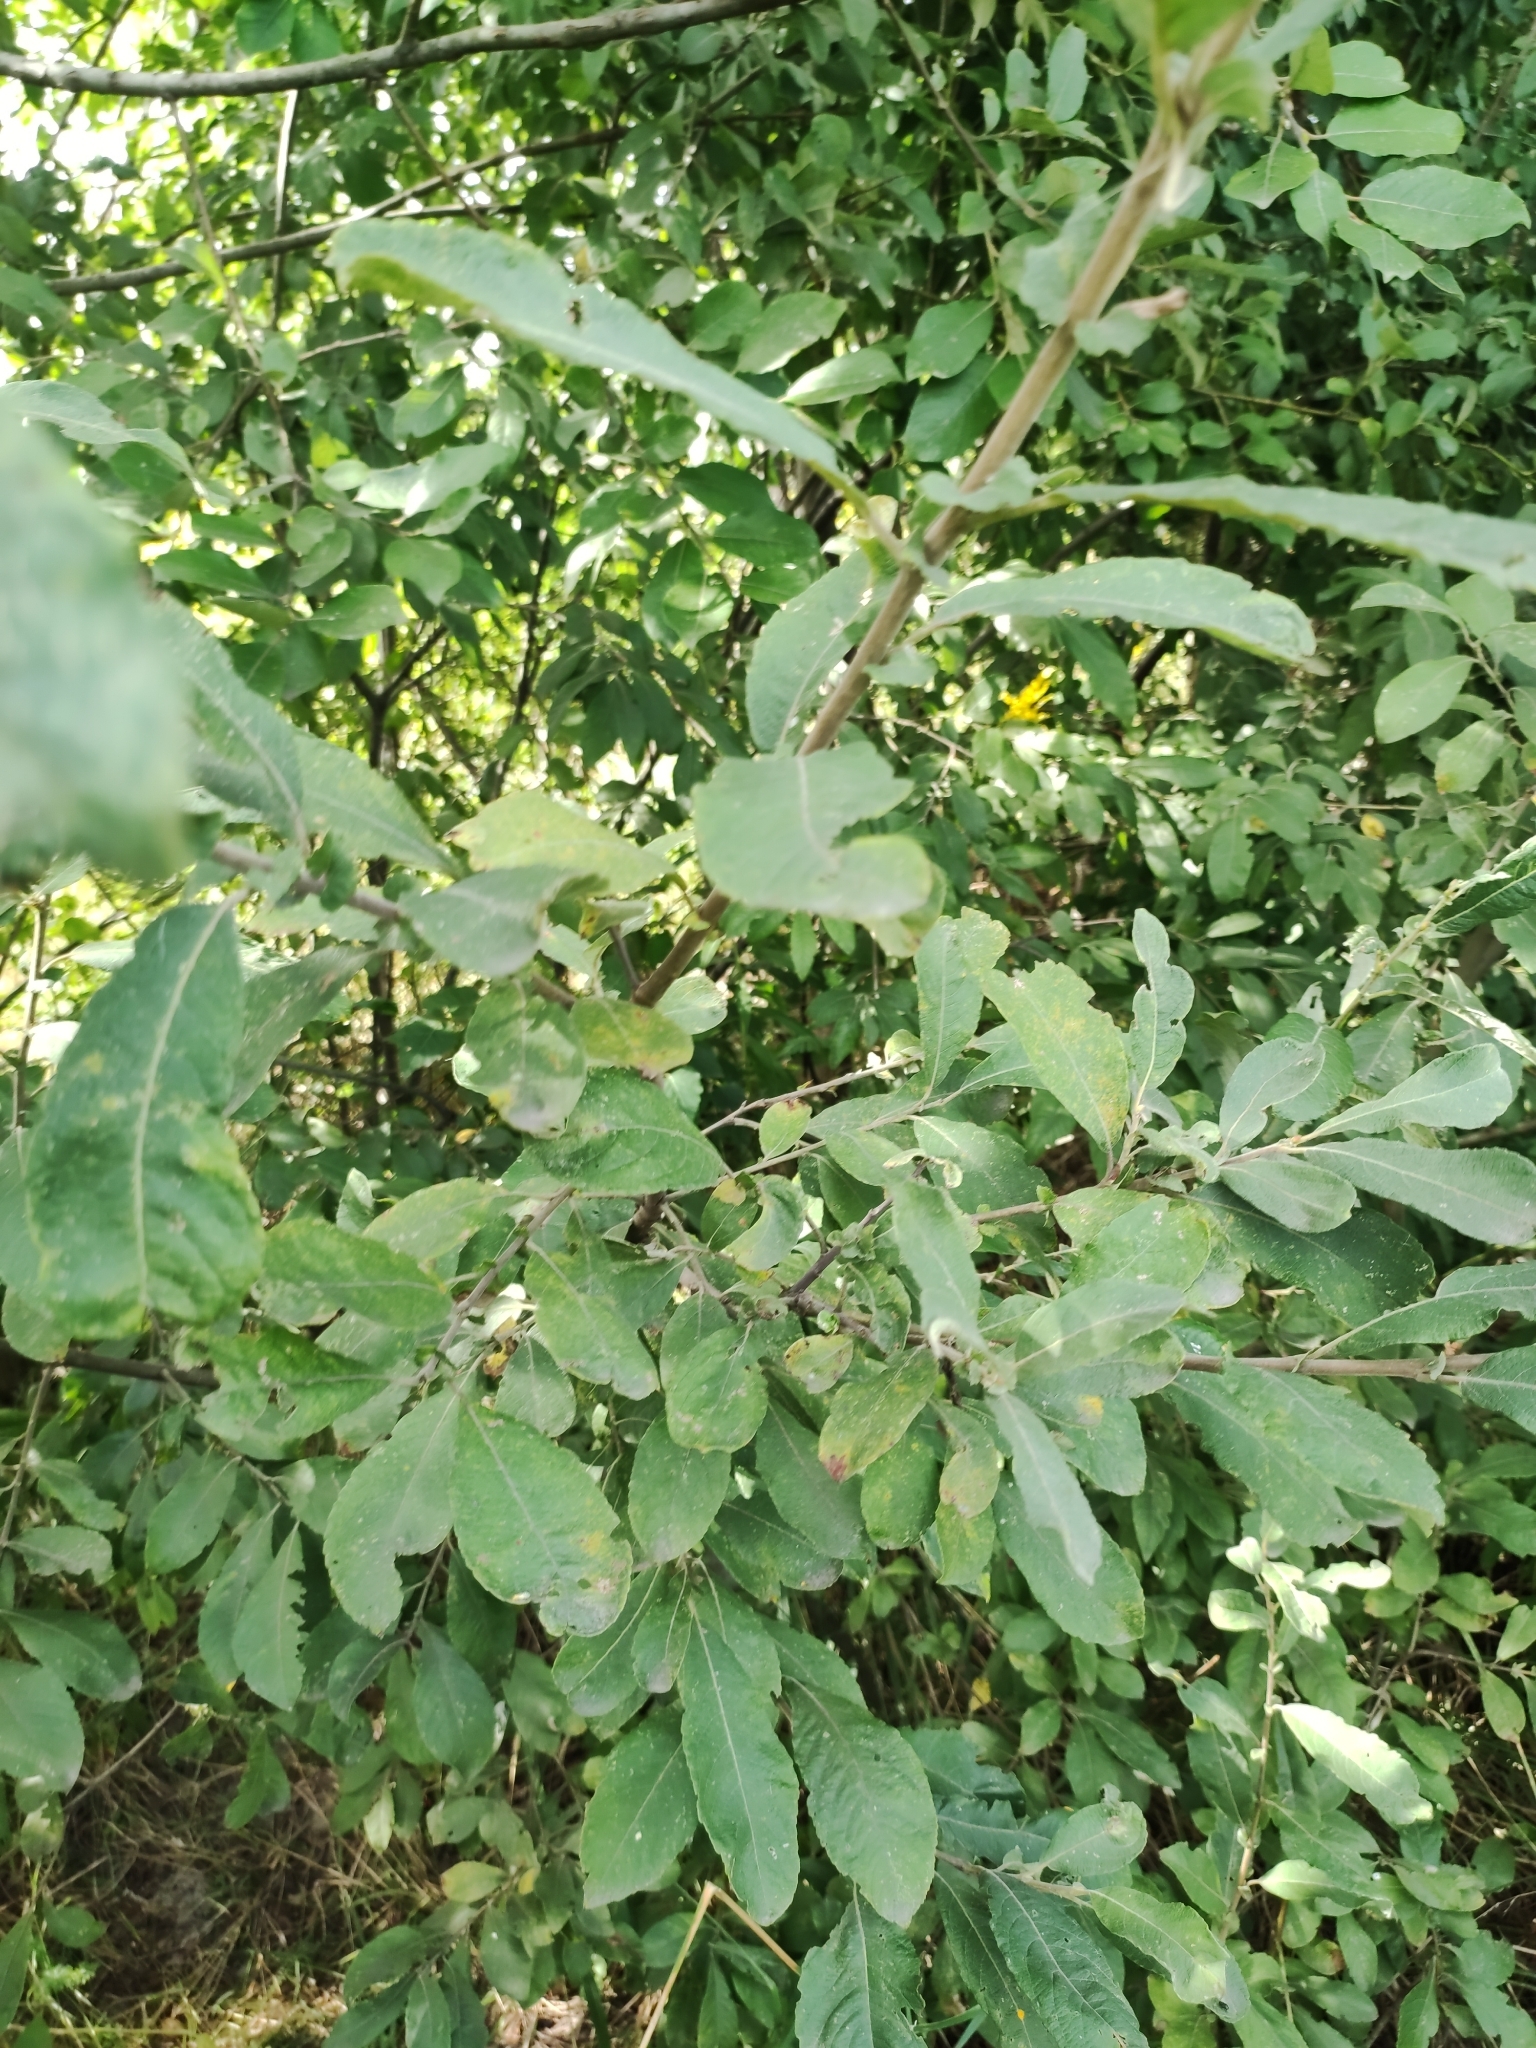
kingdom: Plantae
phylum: Tracheophyta
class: Magnoliopsida
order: Malpighiales
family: Salicaceae
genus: Salix
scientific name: Salix cinerea
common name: Common sallow
